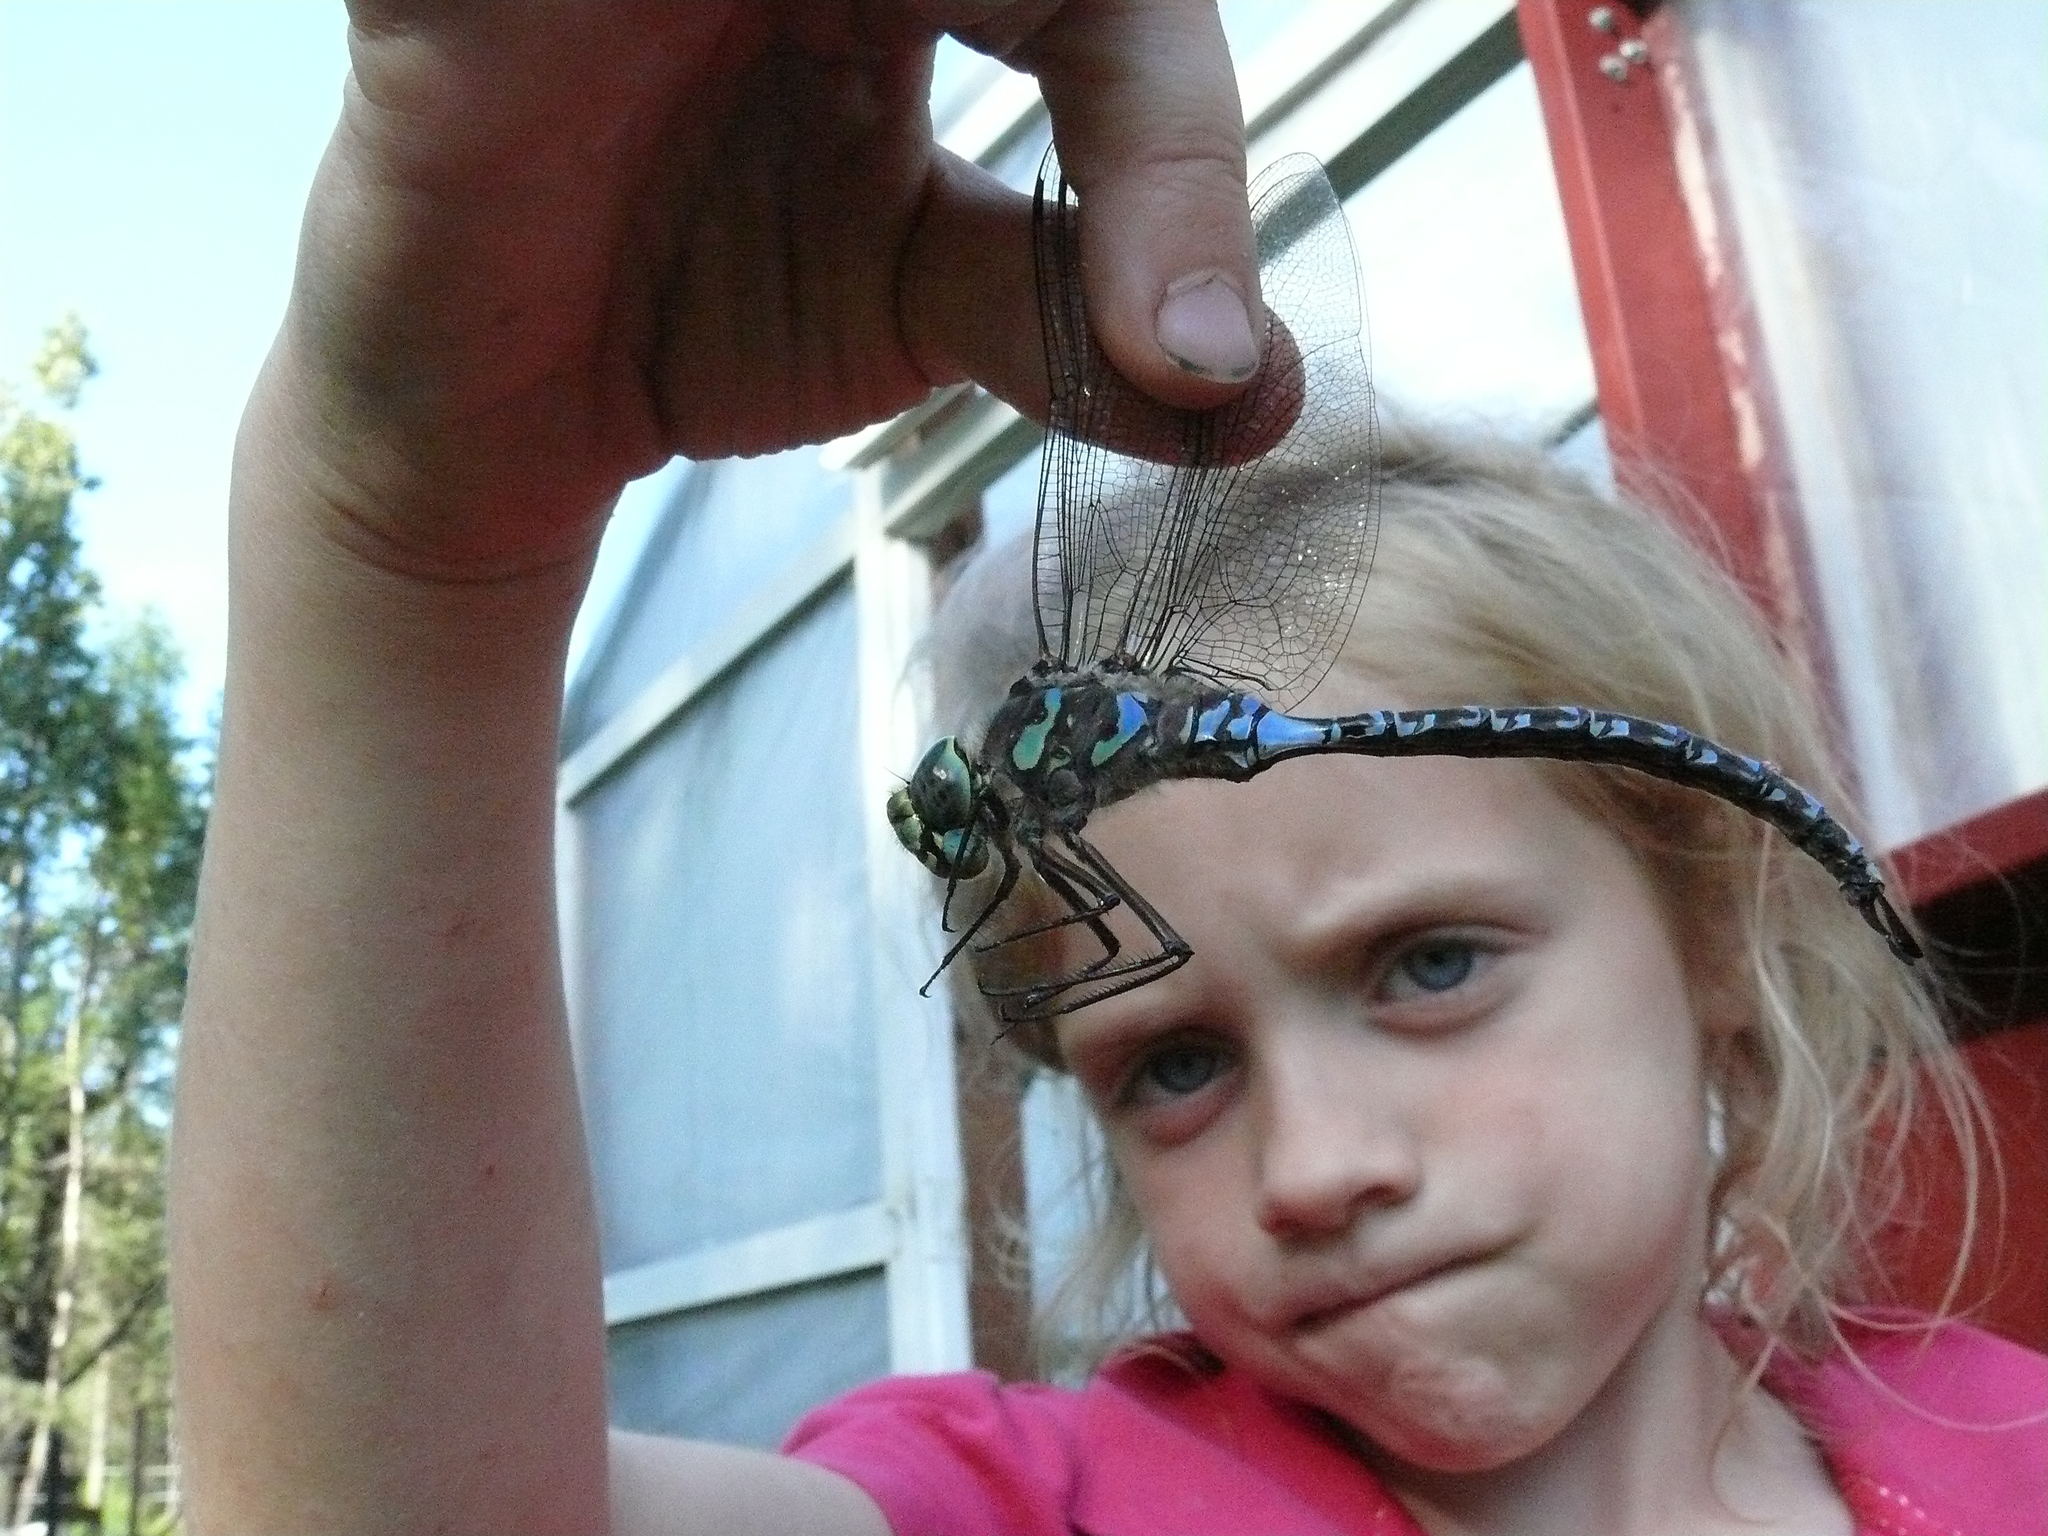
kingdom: Animalia
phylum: Arthropoda
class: Insecta
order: Odonata
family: Aeshnidae
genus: Aeshna
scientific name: Aeshna eremita
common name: Lake darner
